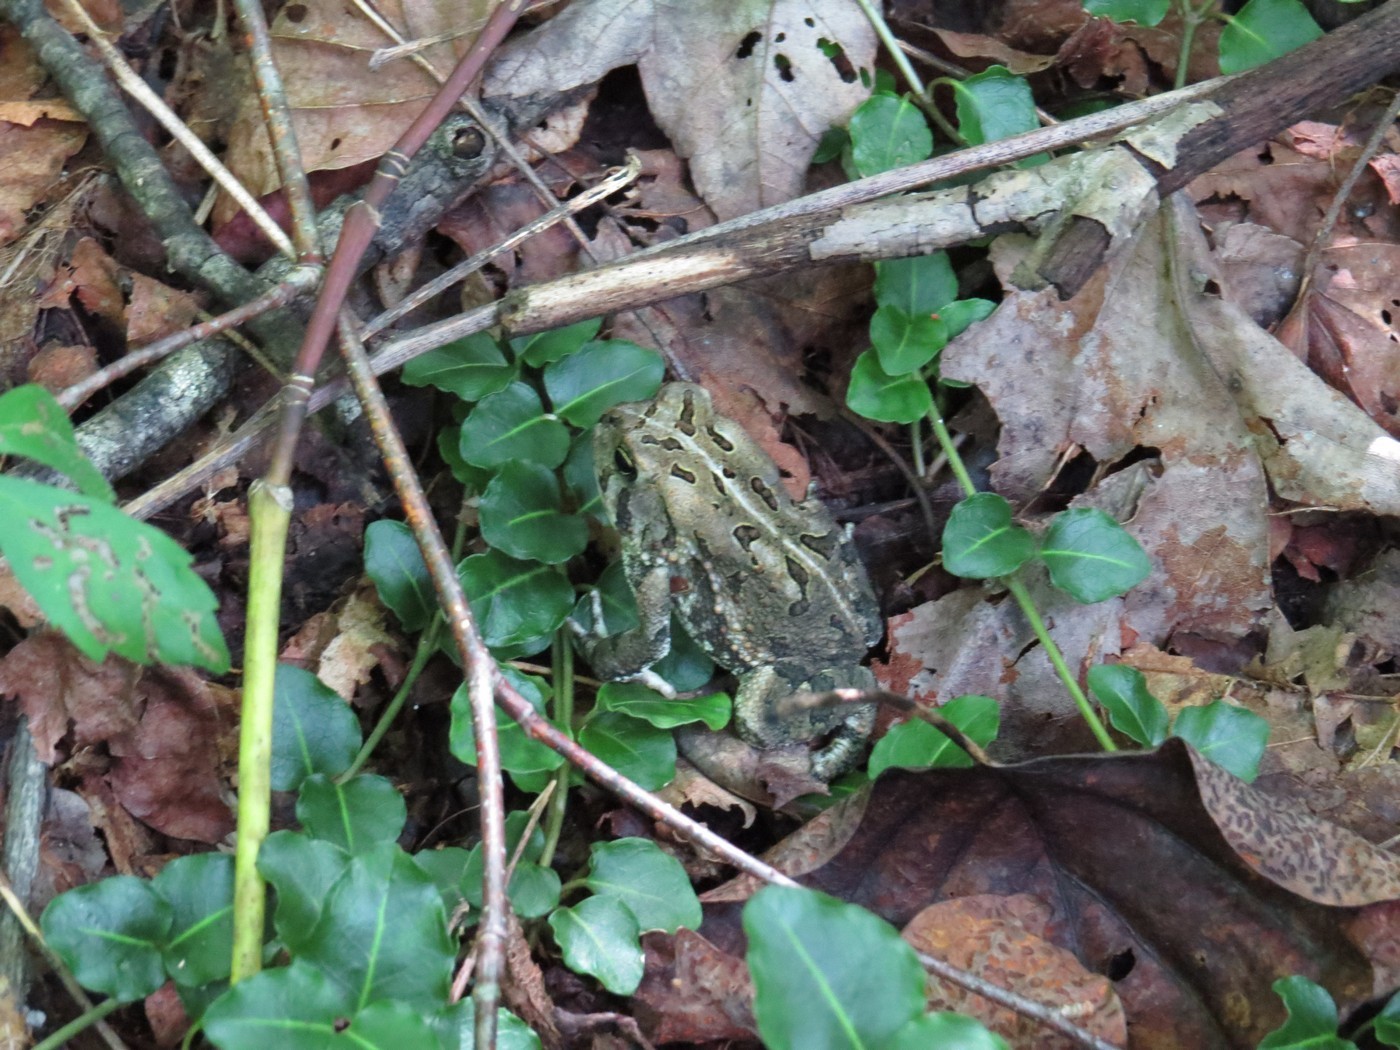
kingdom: Animalia
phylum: Chordata
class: Amphibia
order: Anura
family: Bufonidae
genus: Anaxyrus
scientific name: Anaxyrus fowleri
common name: Fowler's toad
